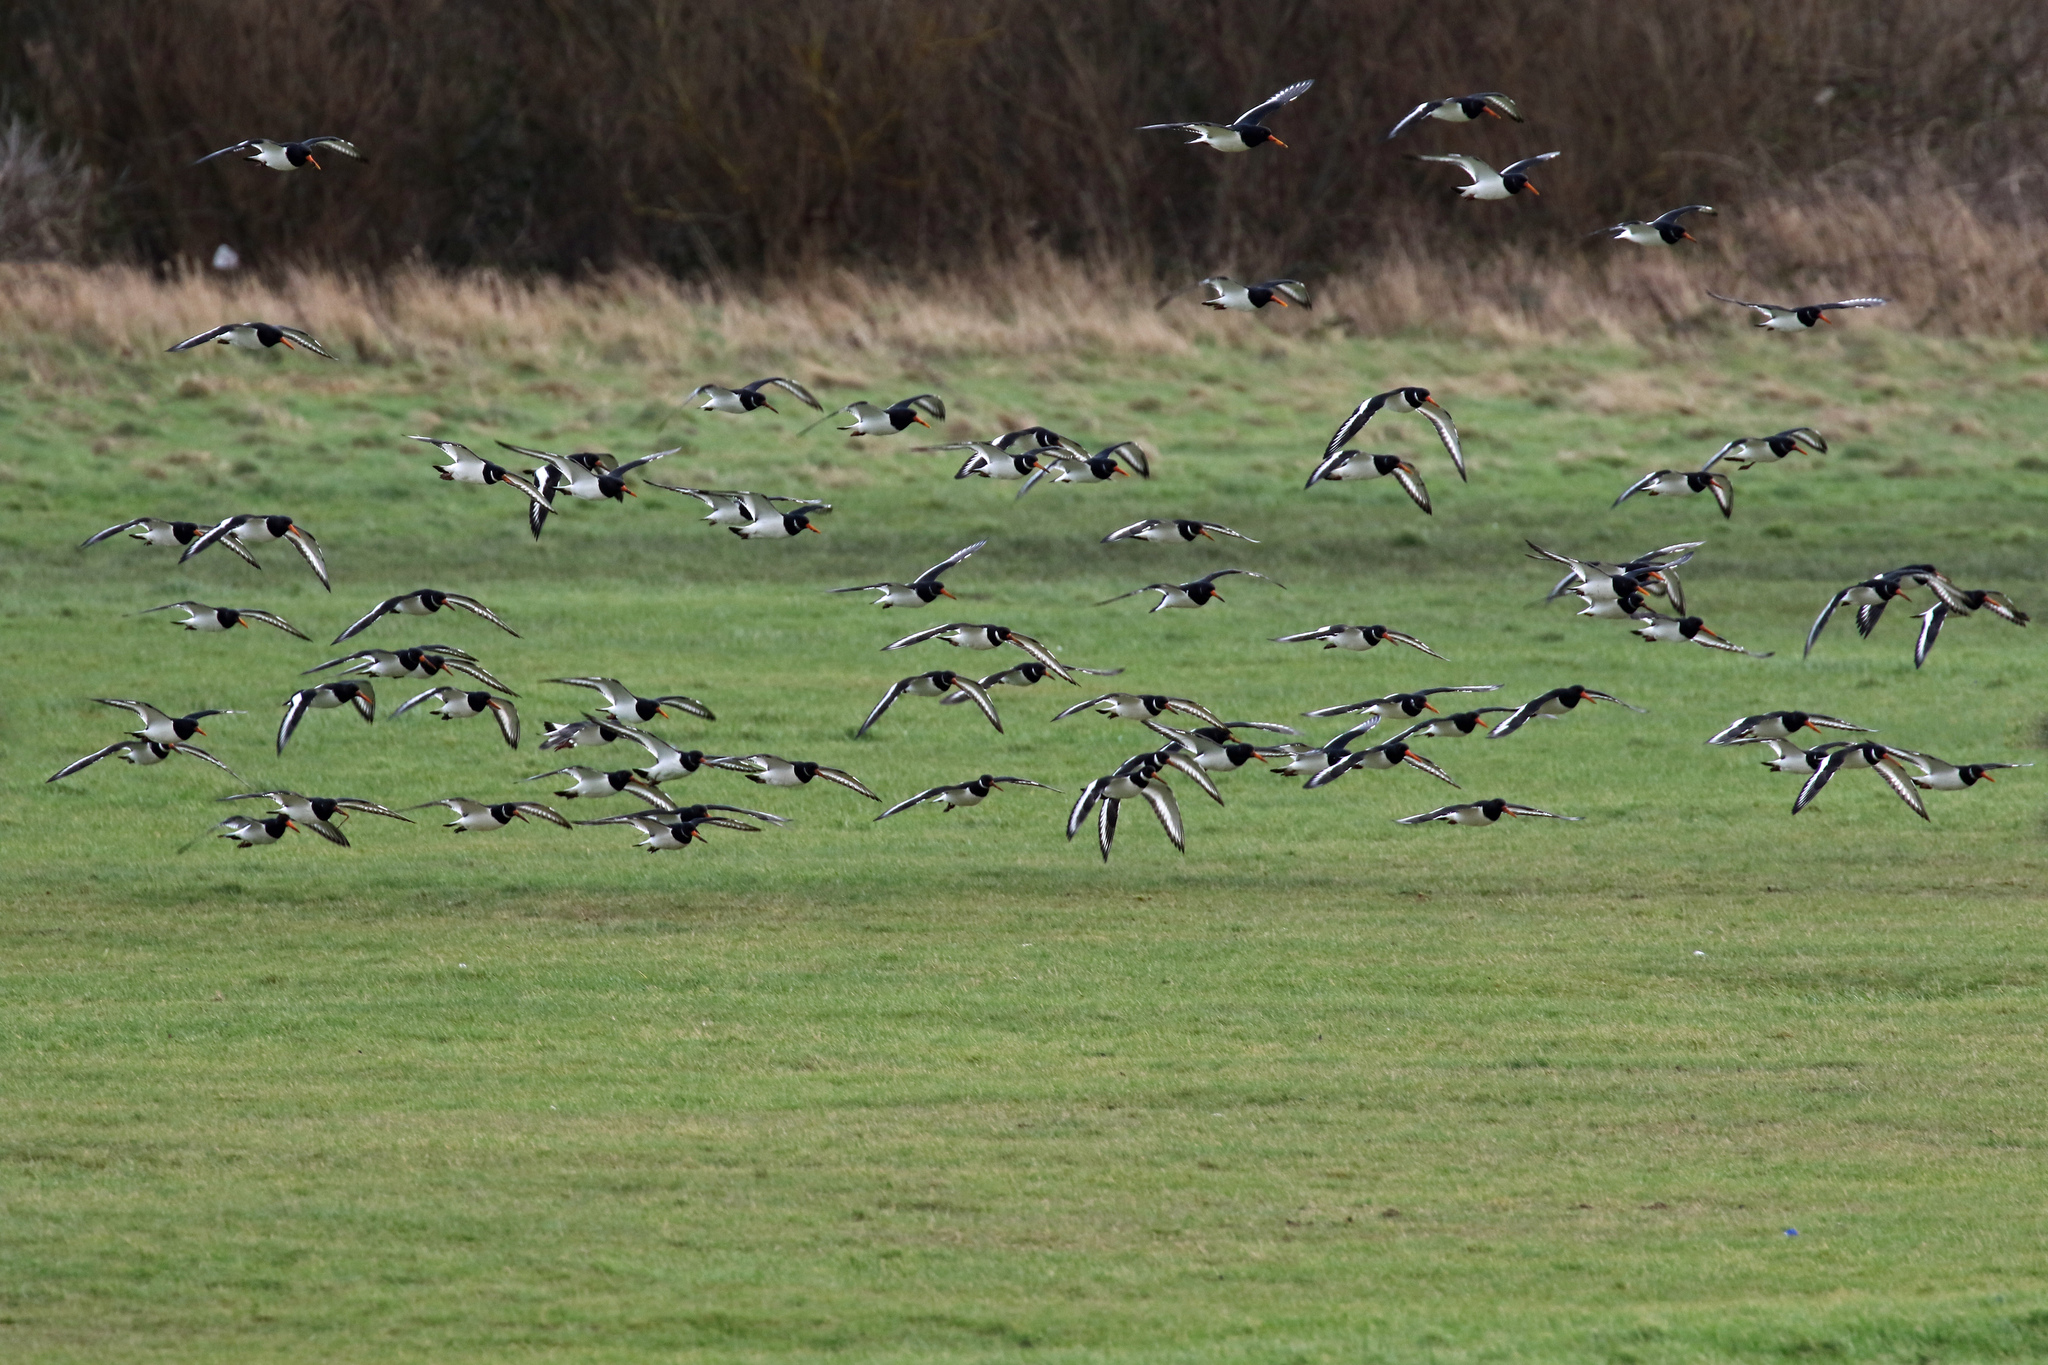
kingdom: Animalia
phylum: Chordata
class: Aves
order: Charadriiformes
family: Haematopodidae
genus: Haematopus
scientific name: Haematopus ostralegus
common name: Eurasian oystercatcher
